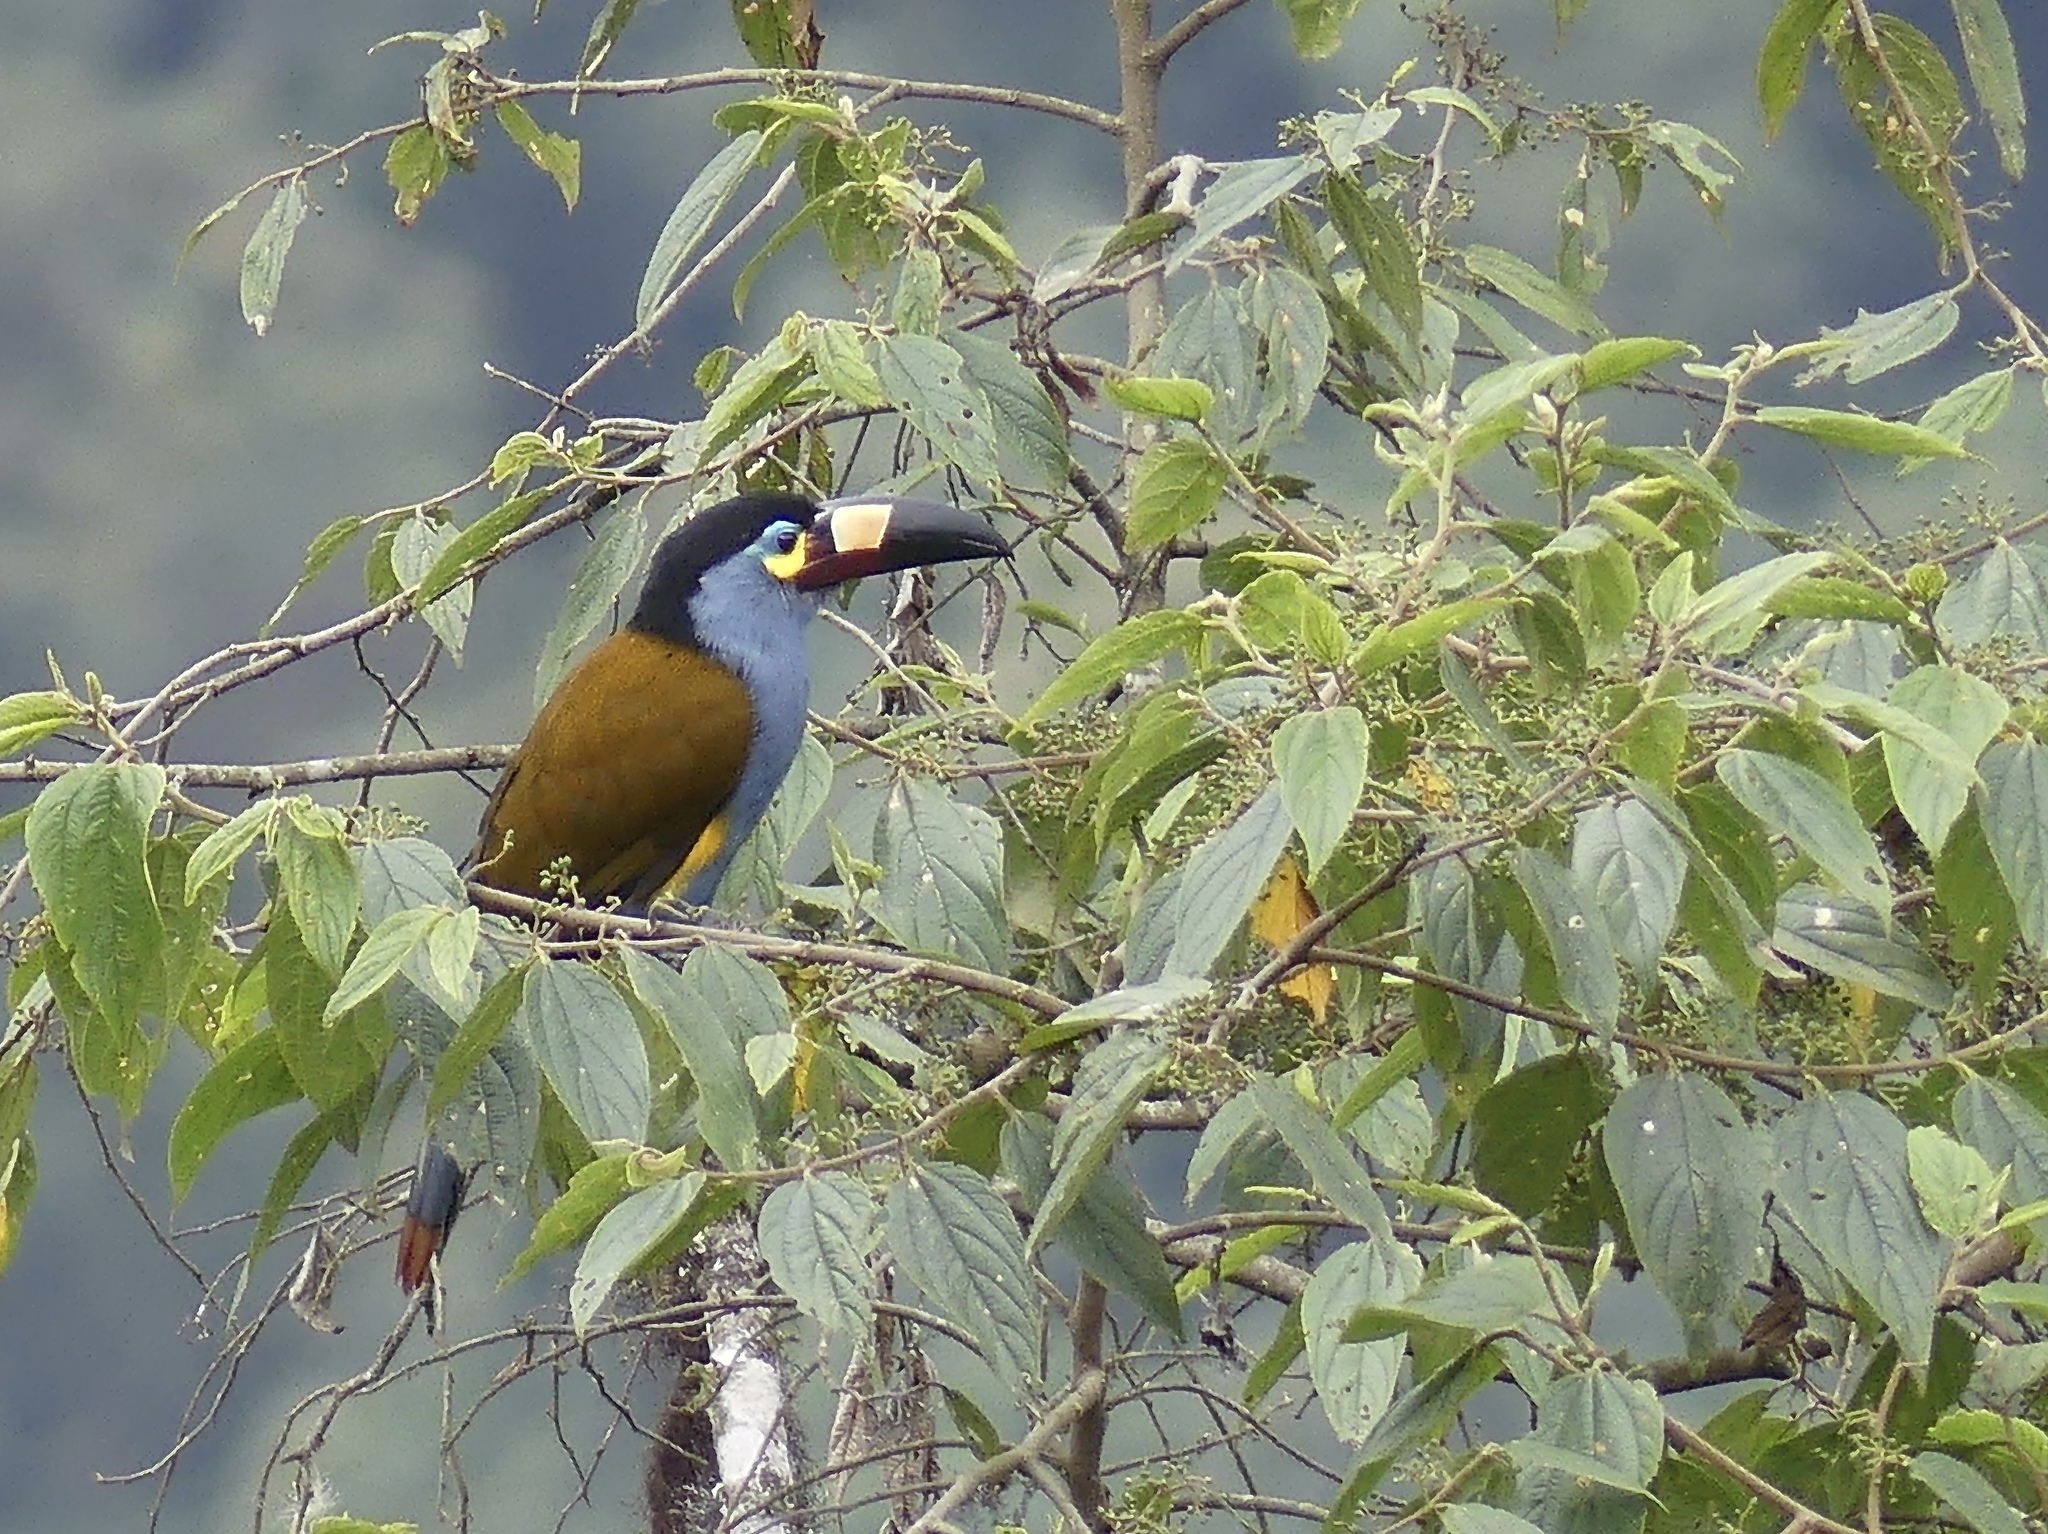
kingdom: Animalia
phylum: Chordata
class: Aves
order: Piciformes
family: Ramphastidae
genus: Andigena
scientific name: Andigena laminirostris
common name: Plate-billed mountain toucan
